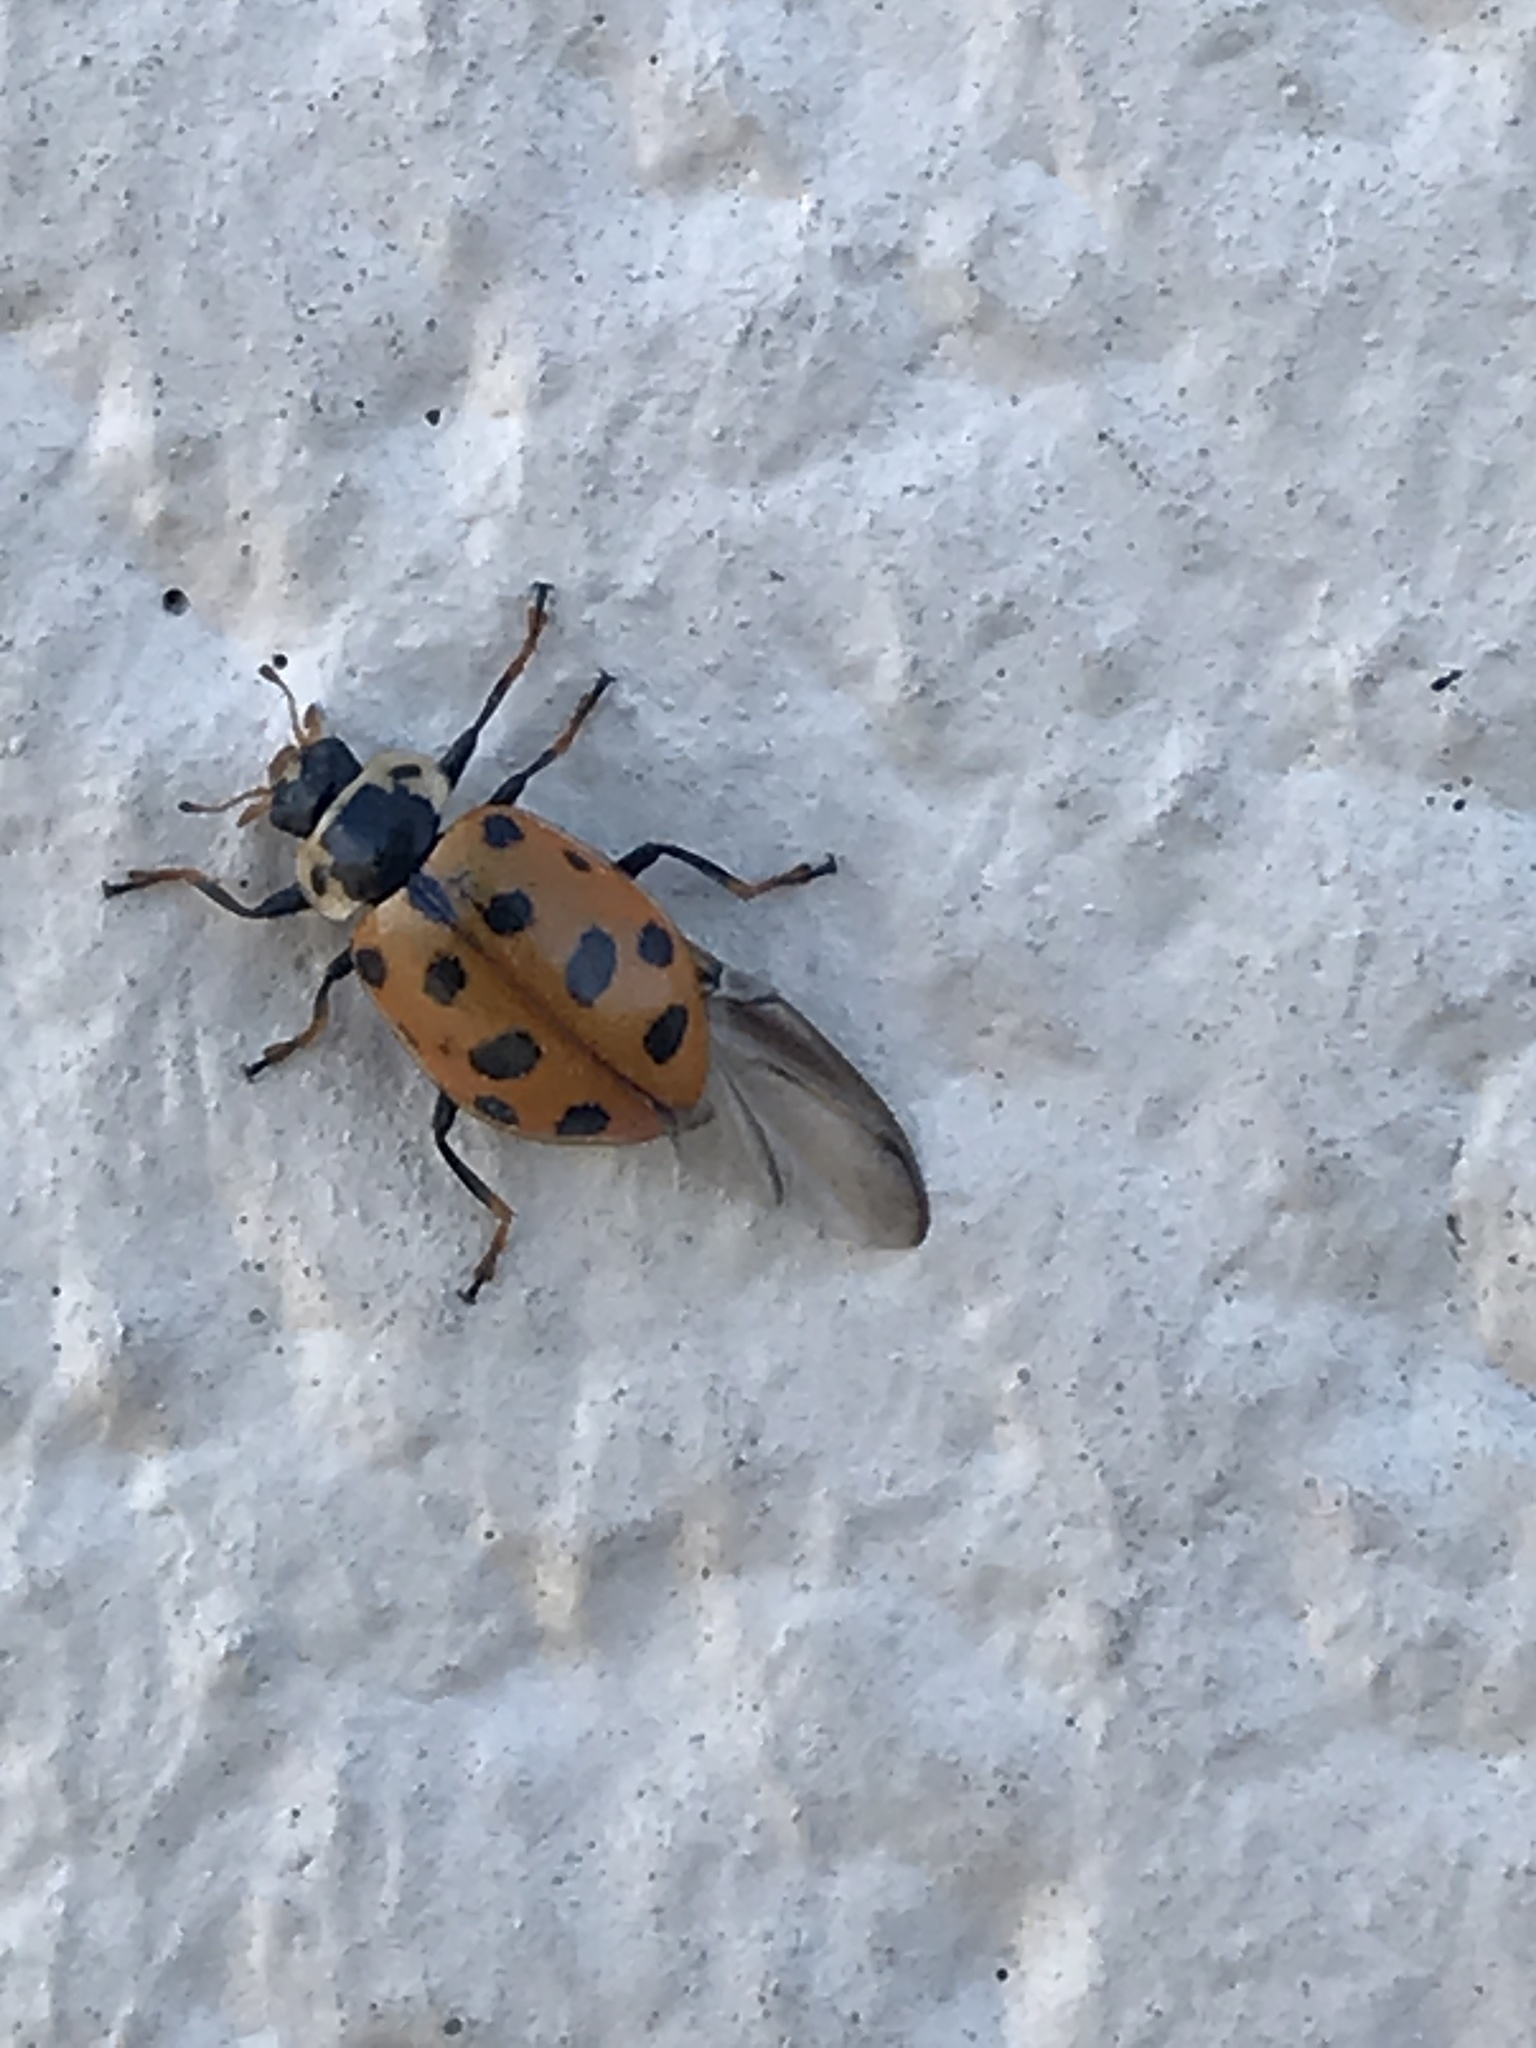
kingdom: Animalia
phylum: Arthropoda
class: Insecta
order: Coleoptera
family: Coccinellidae
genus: Hippodamia
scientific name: Hippodamia tredecimpunctata
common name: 13-spot ladybird
